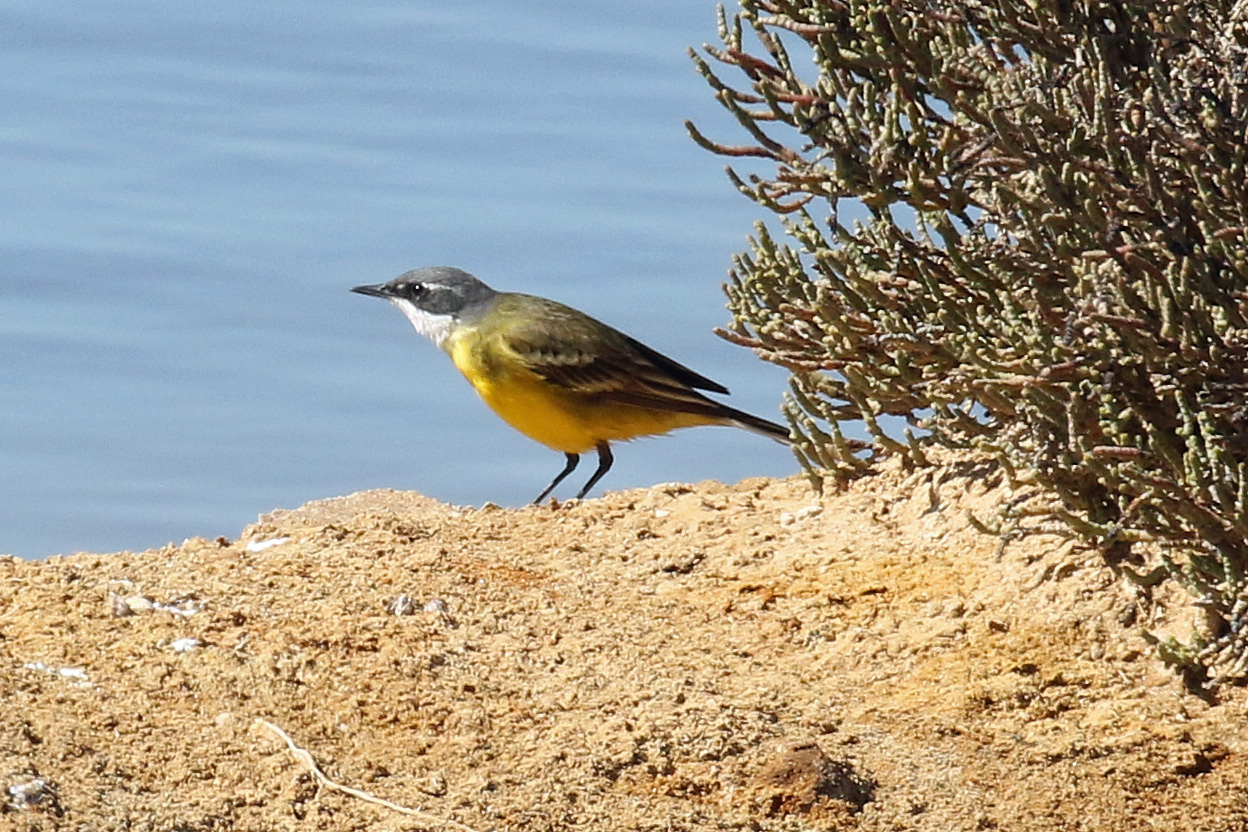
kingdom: Animalia
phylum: Chordata
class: Aves
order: Passeriformes
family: Motacillidae
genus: Motacilla
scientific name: Motacilla flava
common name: Western yellow wagtail
